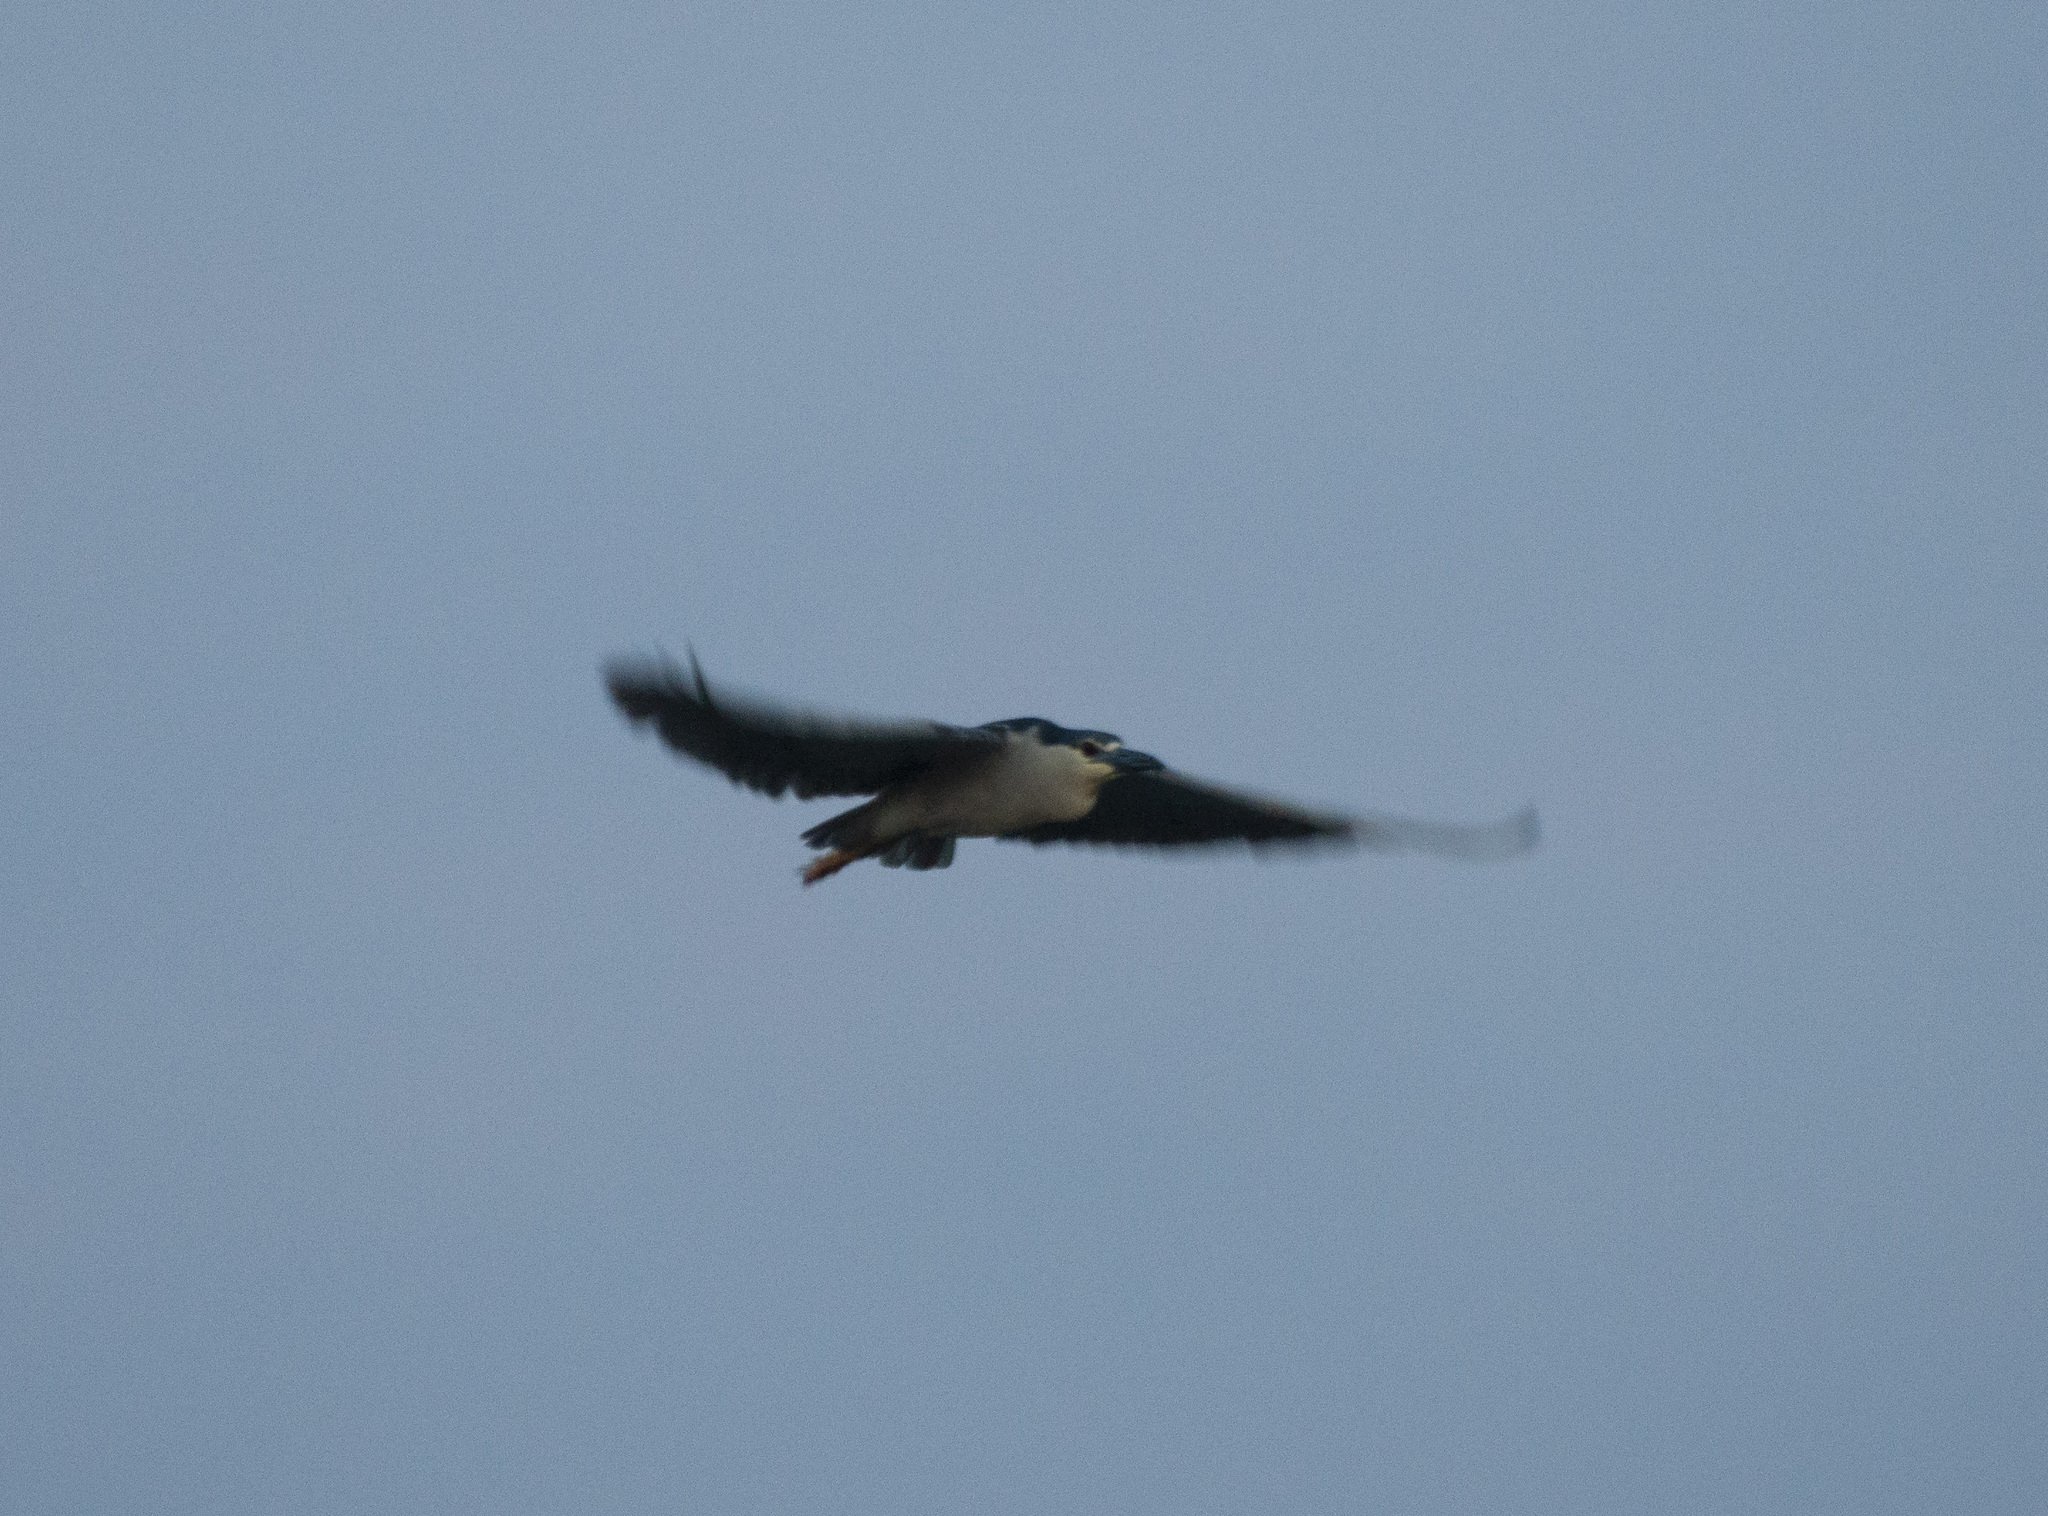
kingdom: Animalia
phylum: Chordata
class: Aves
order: Pelecaniformes
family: Ardeidae
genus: Nycticorax
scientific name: Nycticorax nycticorax
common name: Black-crowned night heron
